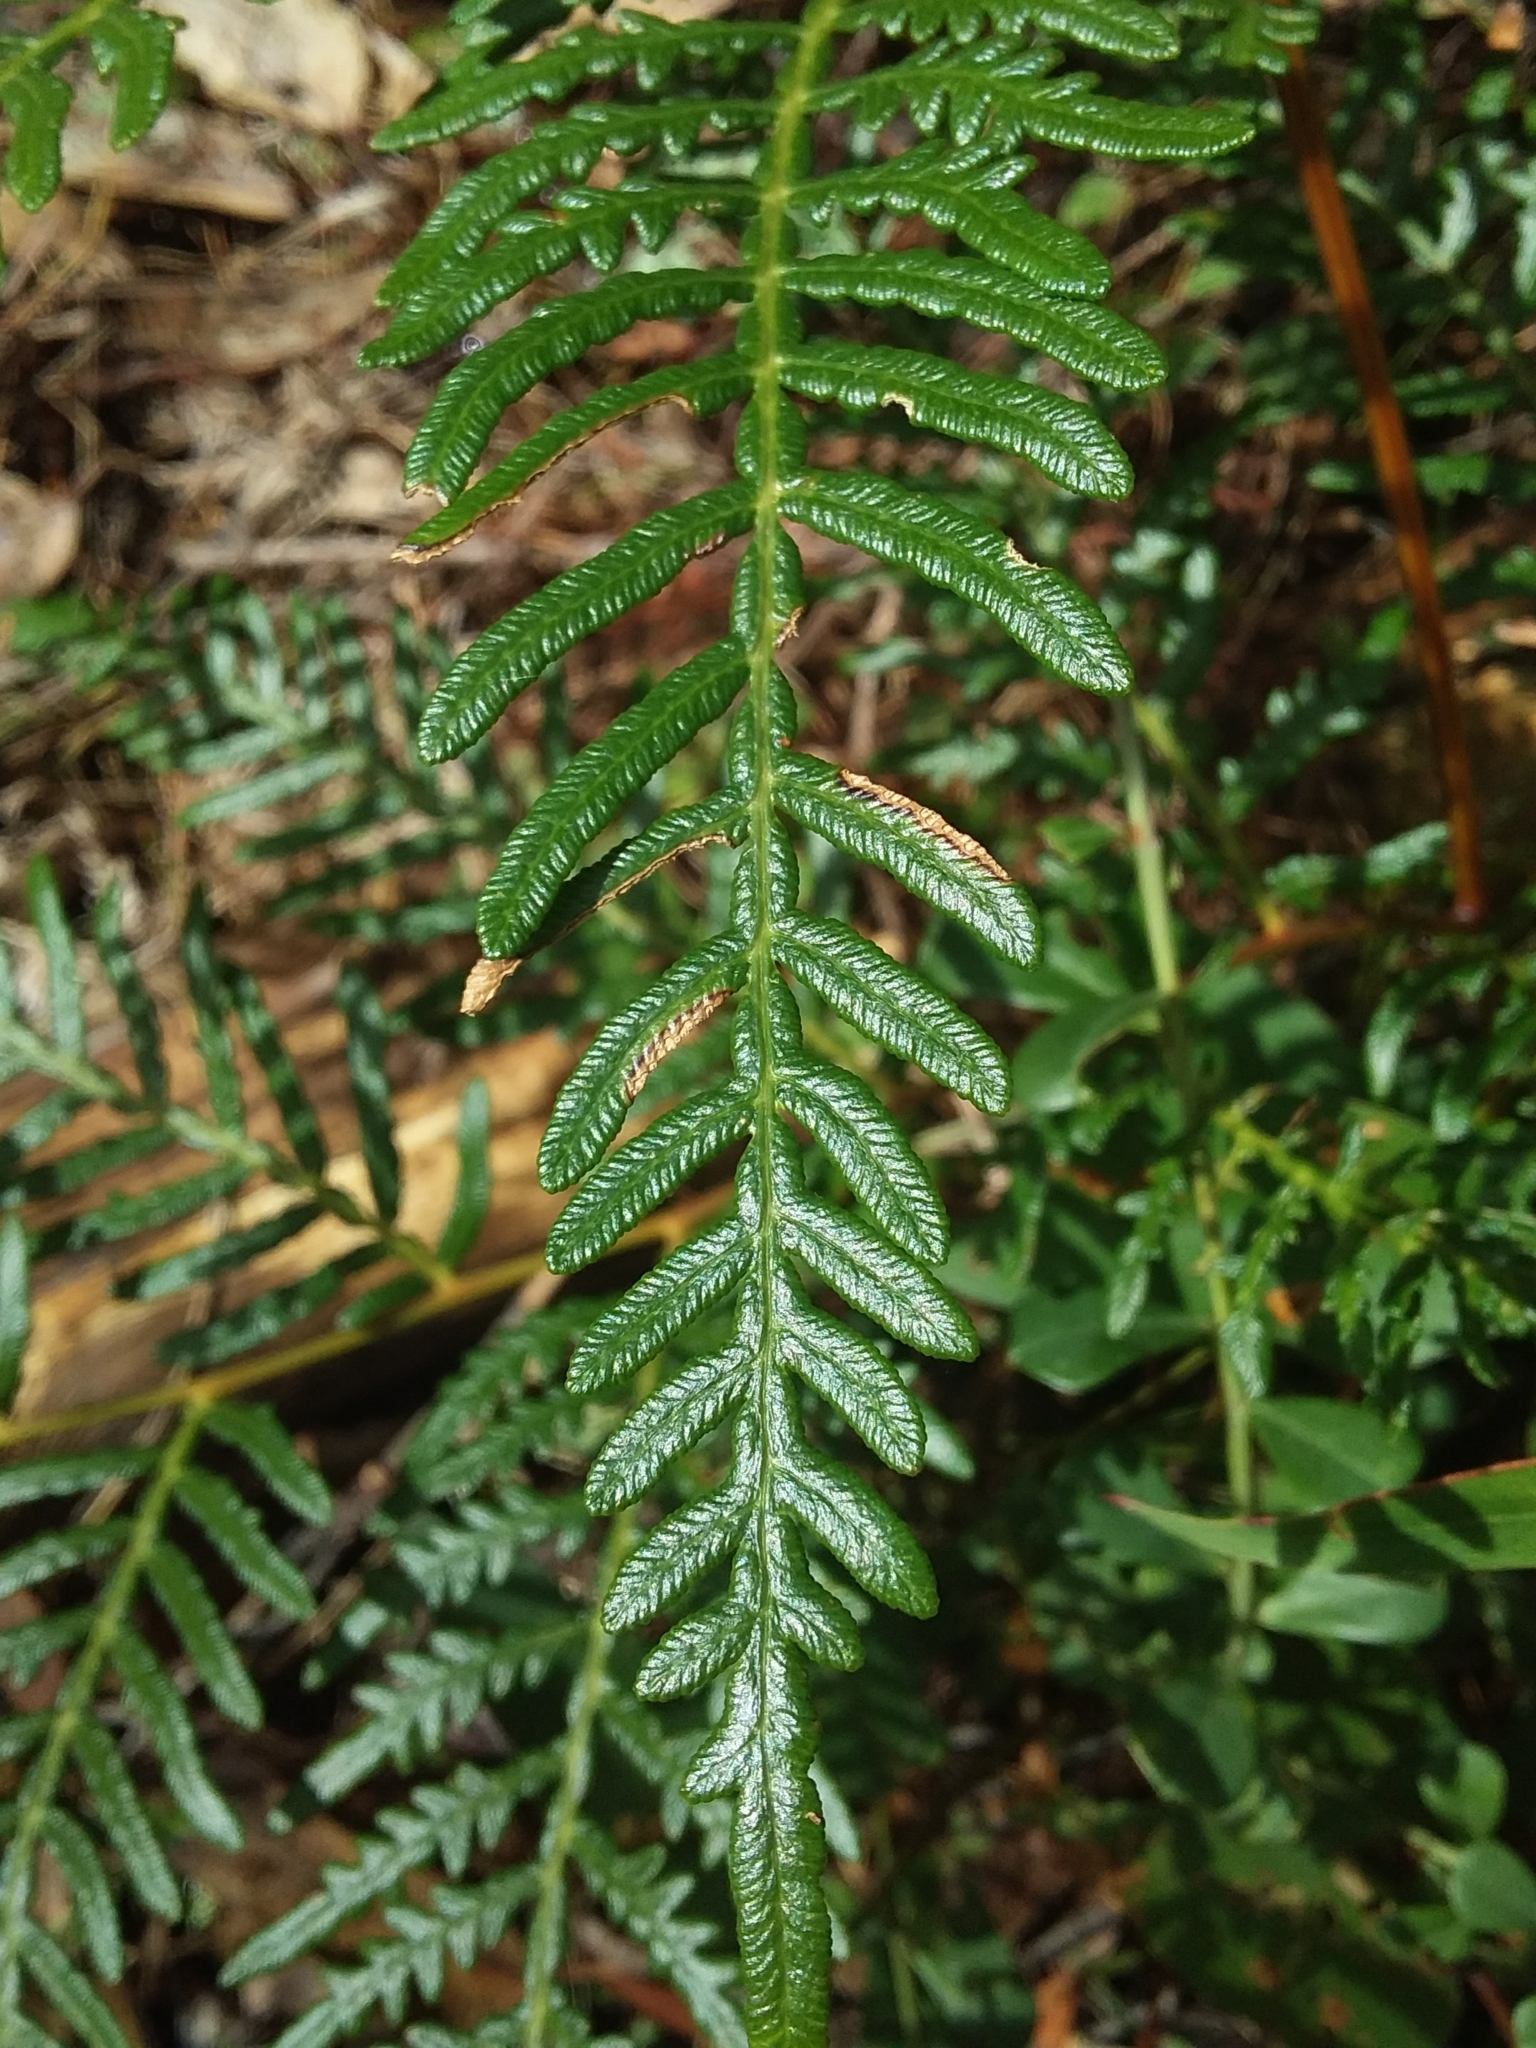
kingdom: Plantae
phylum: Tracheophyta
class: Polypodiopsida
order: Polypodiales
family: Dennstaedtiaceae
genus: Pteridium
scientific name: Pteridium esculentum
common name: Bracken fern
